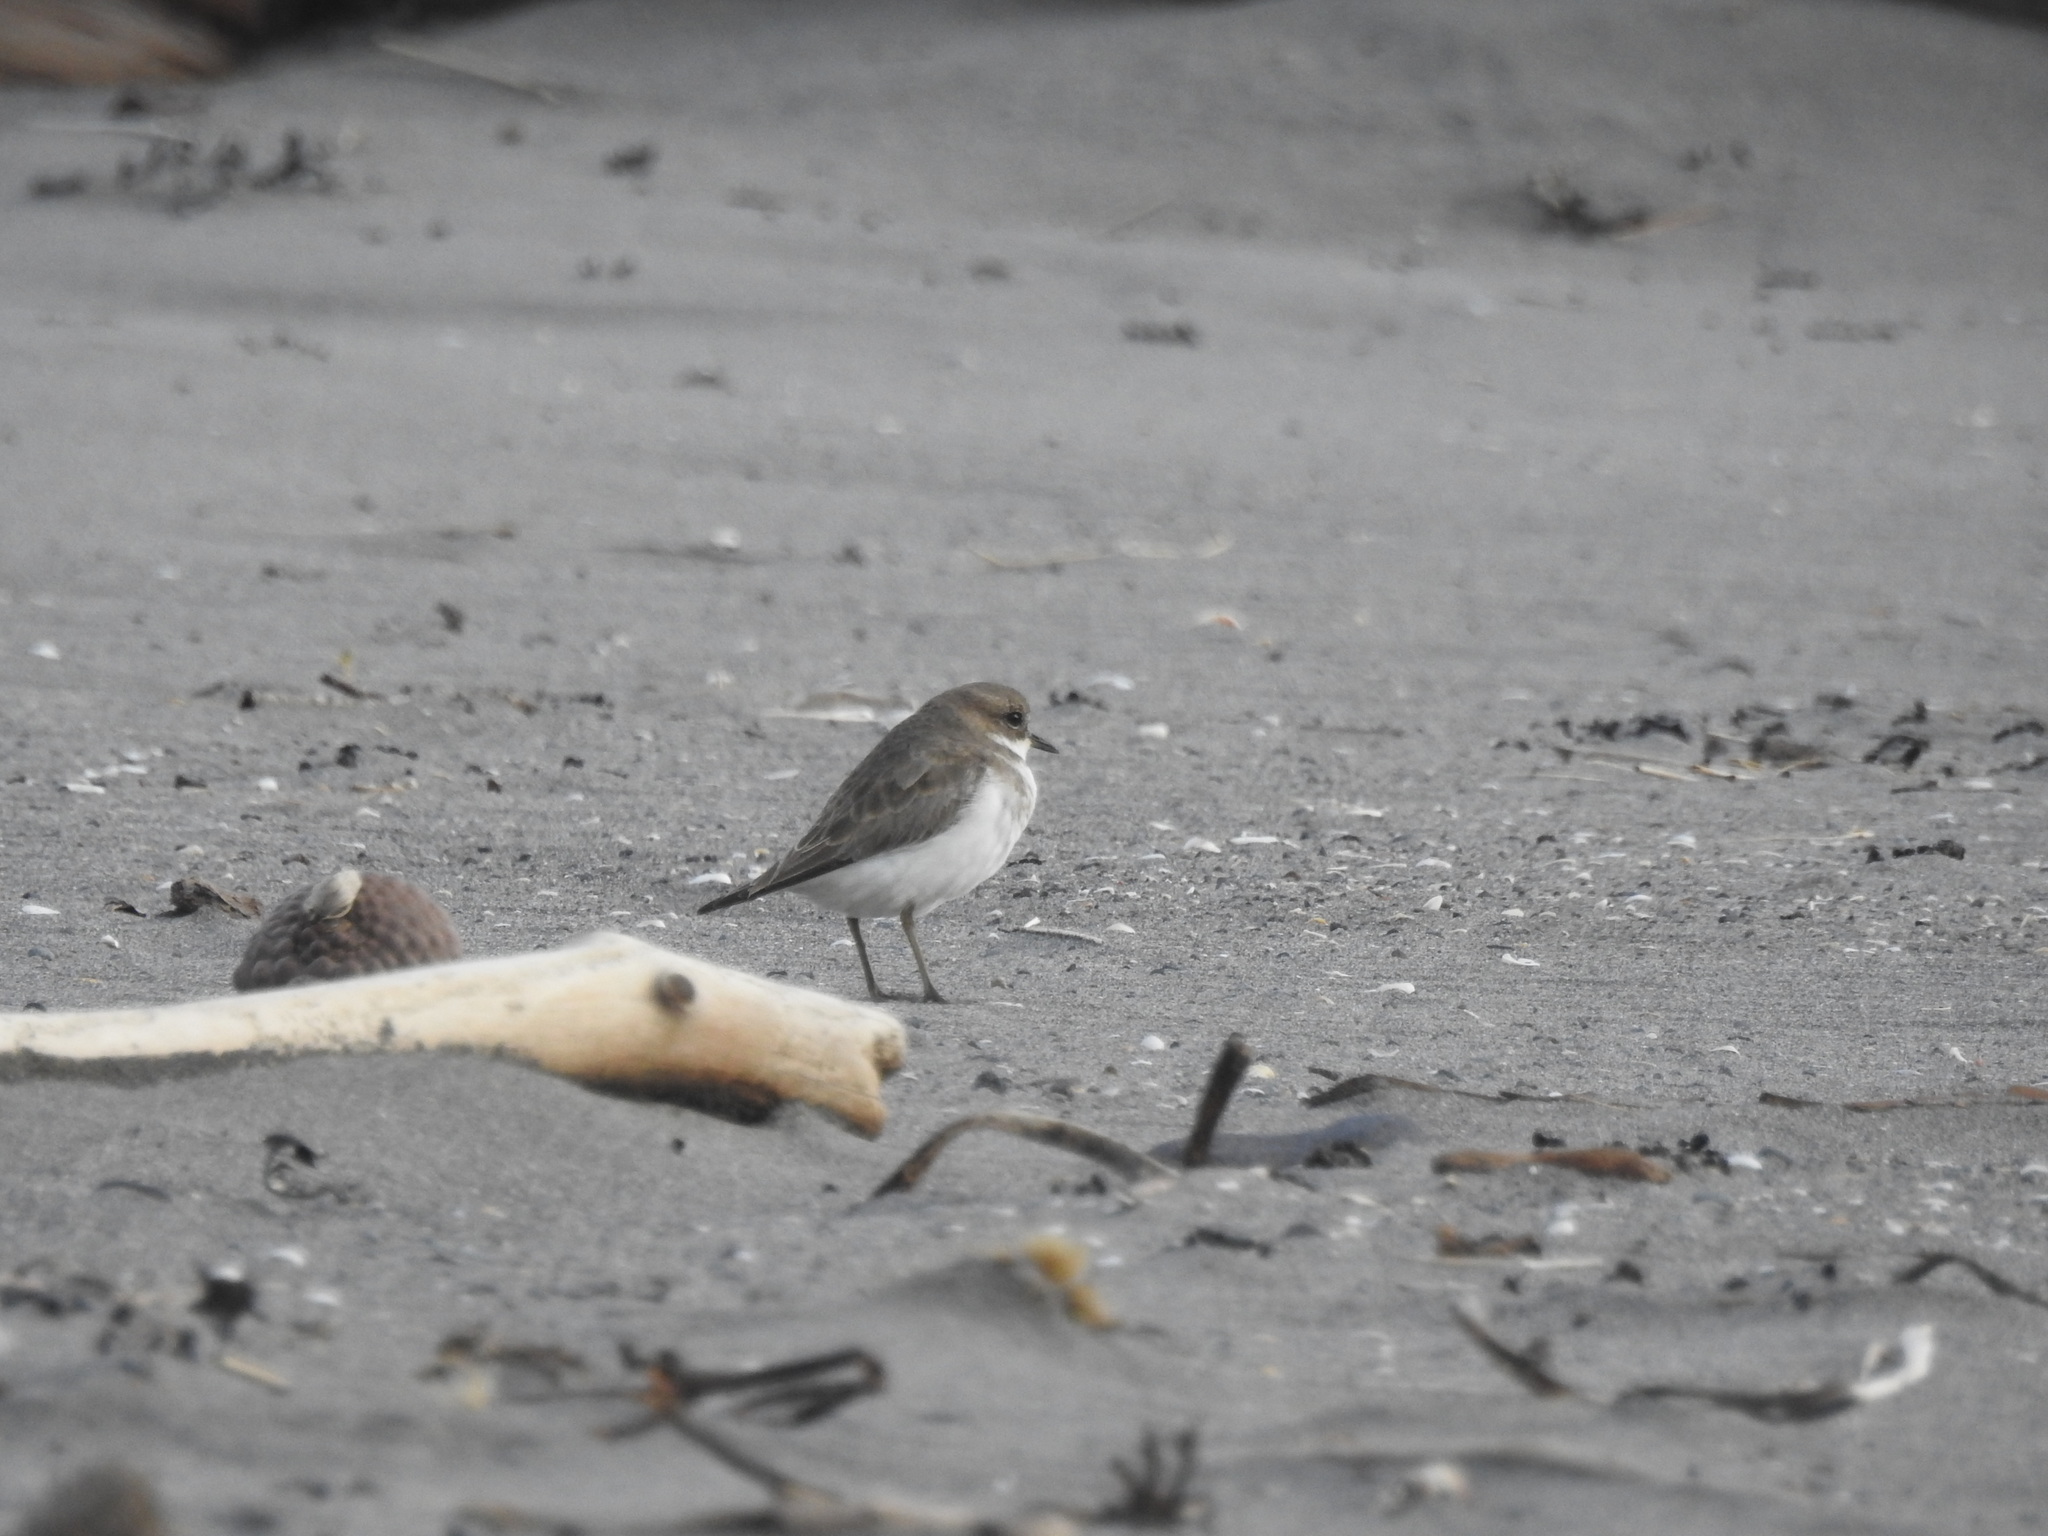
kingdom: Animalia
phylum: Chordata
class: Aves
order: Charadriiformes
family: Charadriidae
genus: Anarhynchus
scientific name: Anarhynchus
